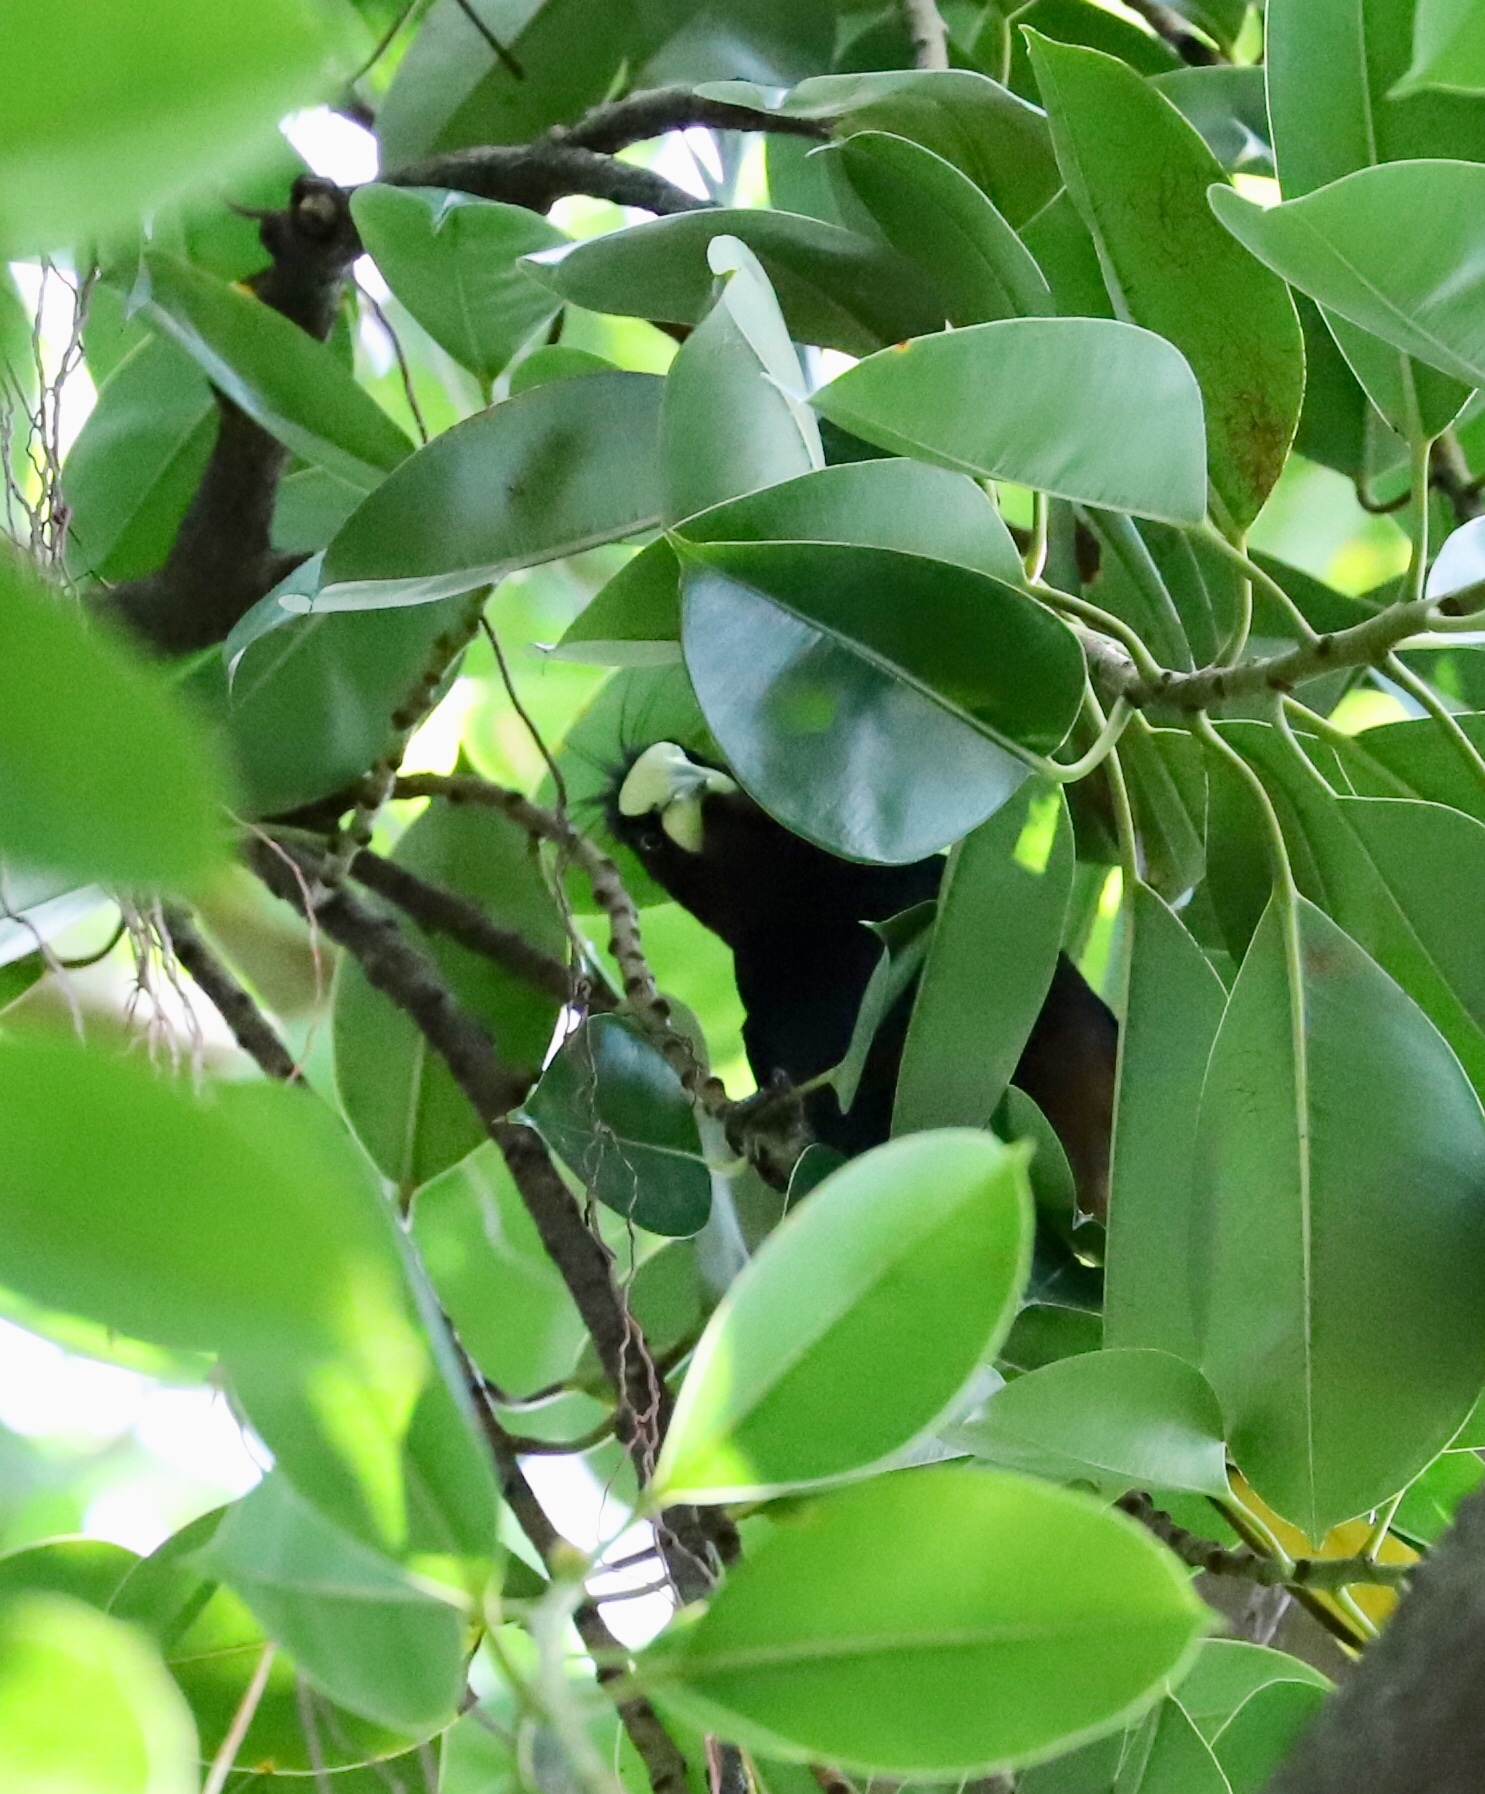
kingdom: Animalia
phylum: Chordata
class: Aves
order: Passeriformes
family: Icteridae
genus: Psarocolius
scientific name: Psarocolius decumanus
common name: Crested oropendola
